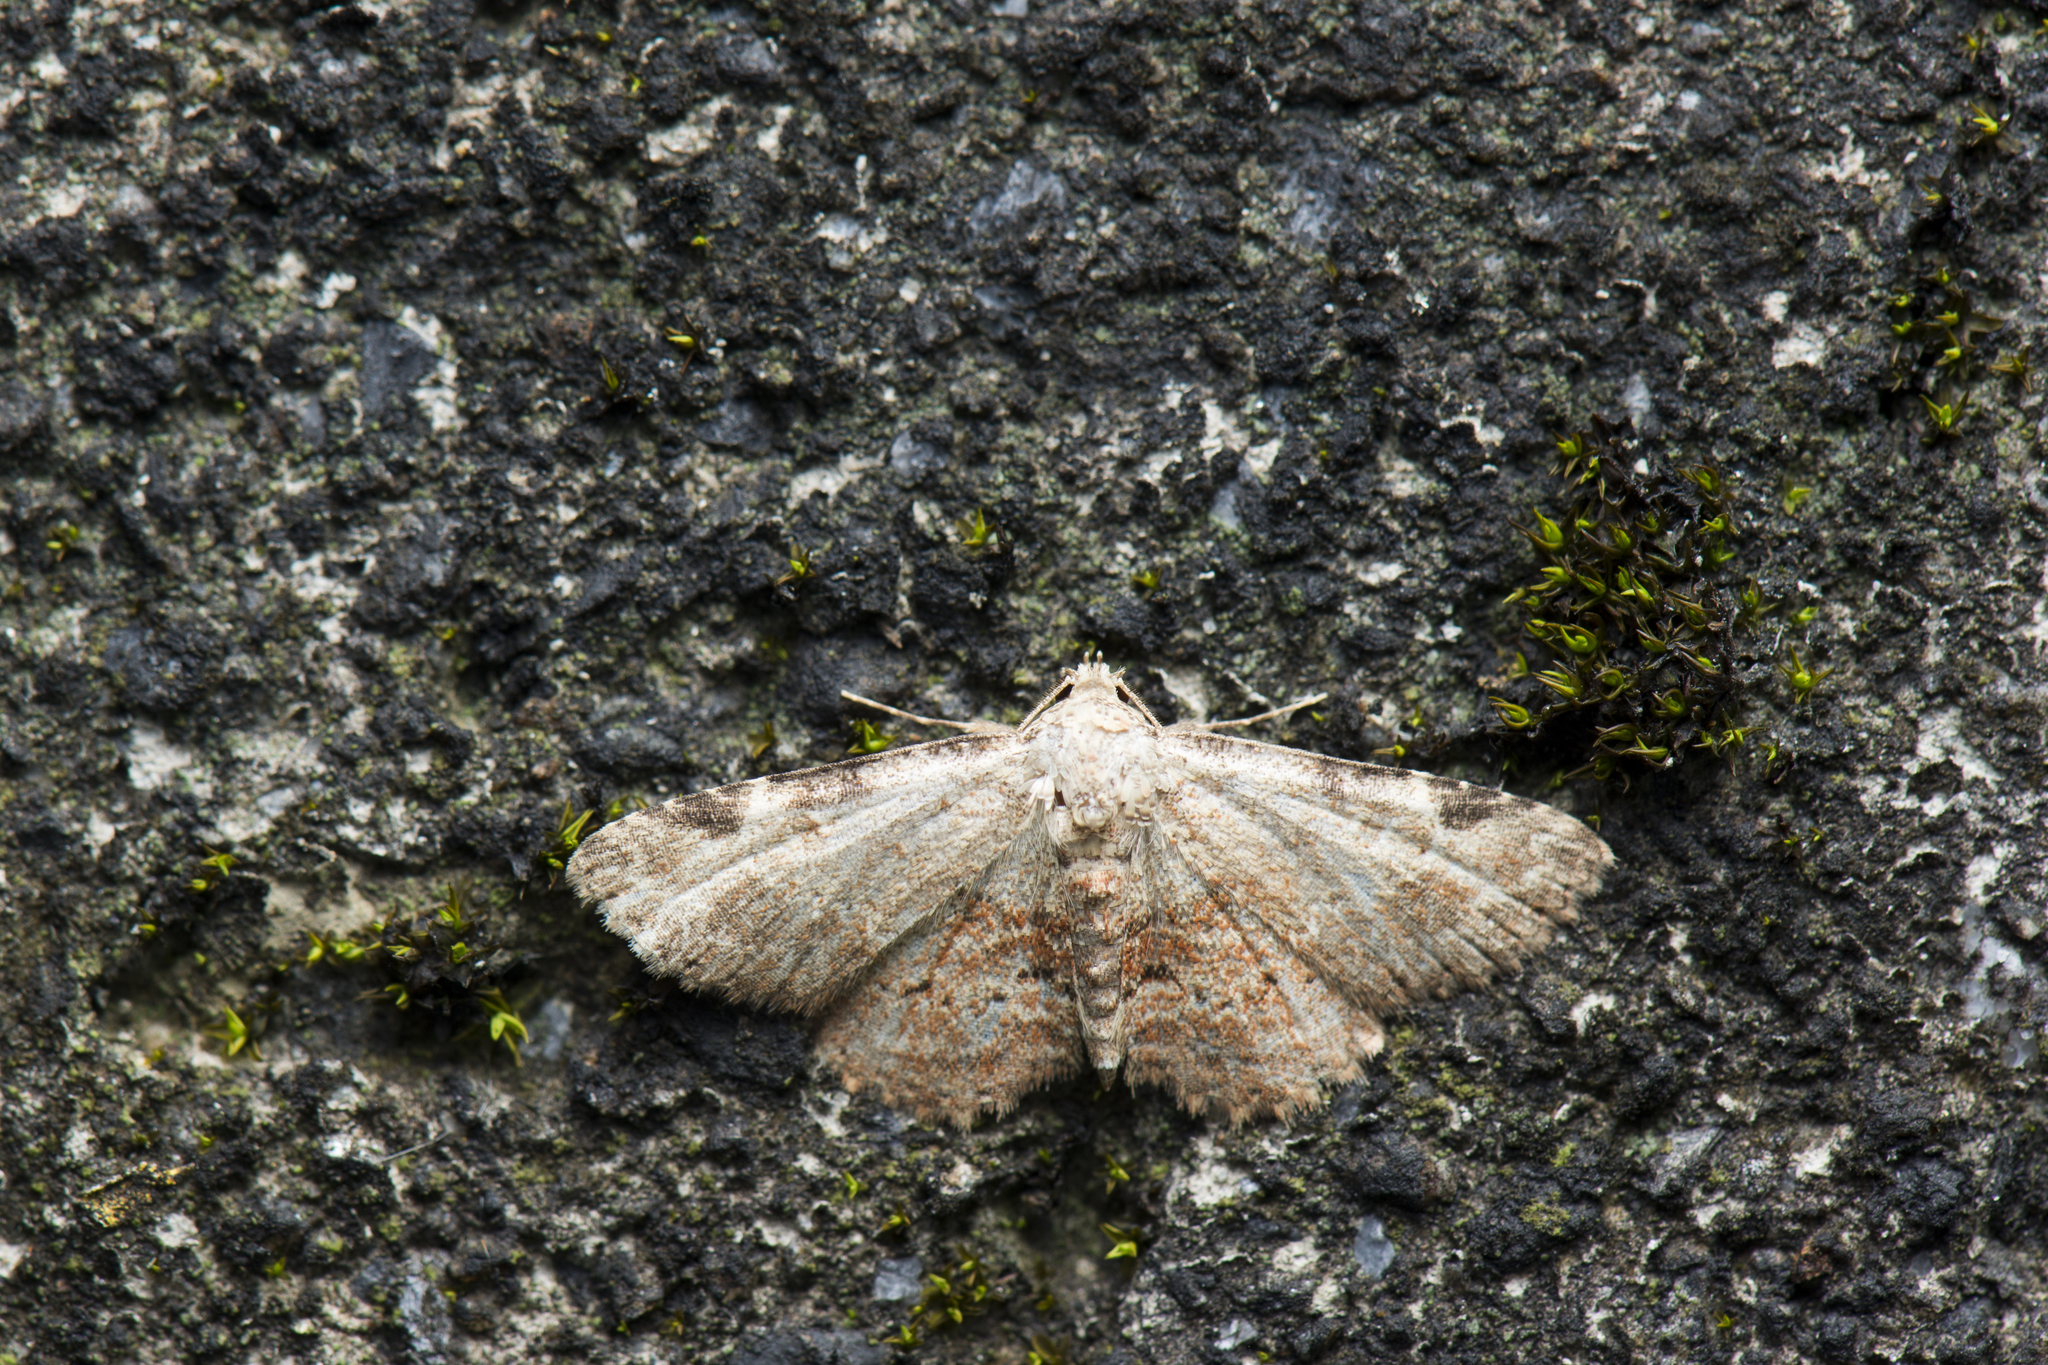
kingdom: Animalia
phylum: Arthropoda
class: Insecta
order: Lepidoptera
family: Erebidae
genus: Panilla
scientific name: Panilla minor
